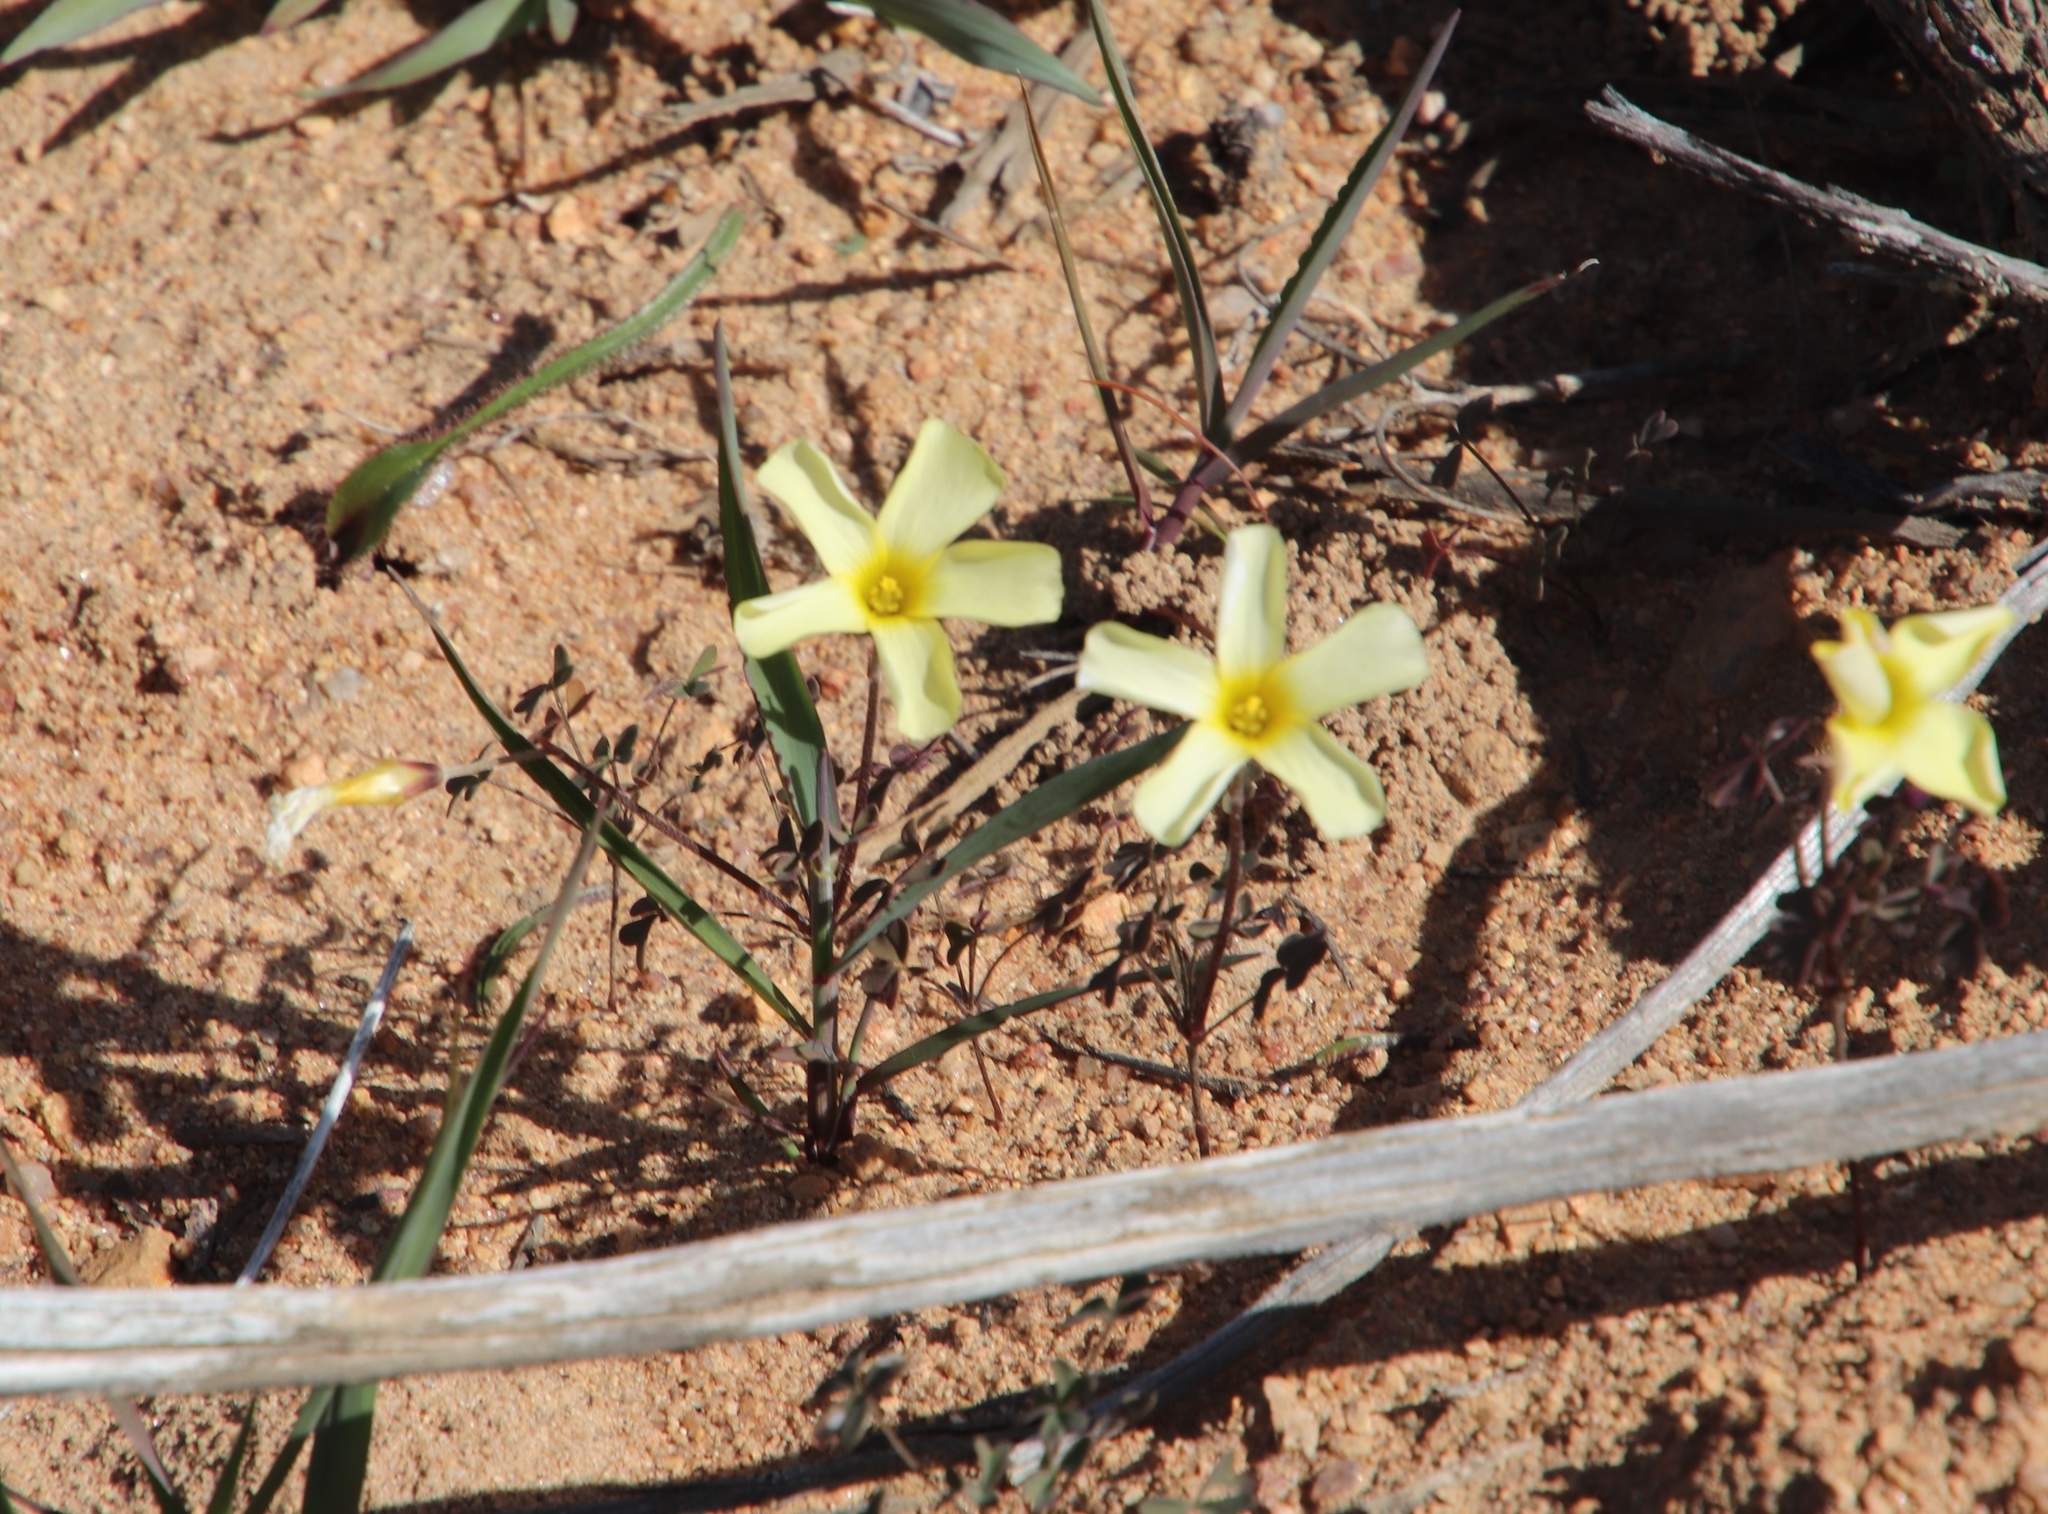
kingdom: Plantae
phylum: Tracheophyta
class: Magnoliopsida
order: Oxalidales
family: Oxalidaceae
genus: Oxalis
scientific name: Oxalis obtusa
